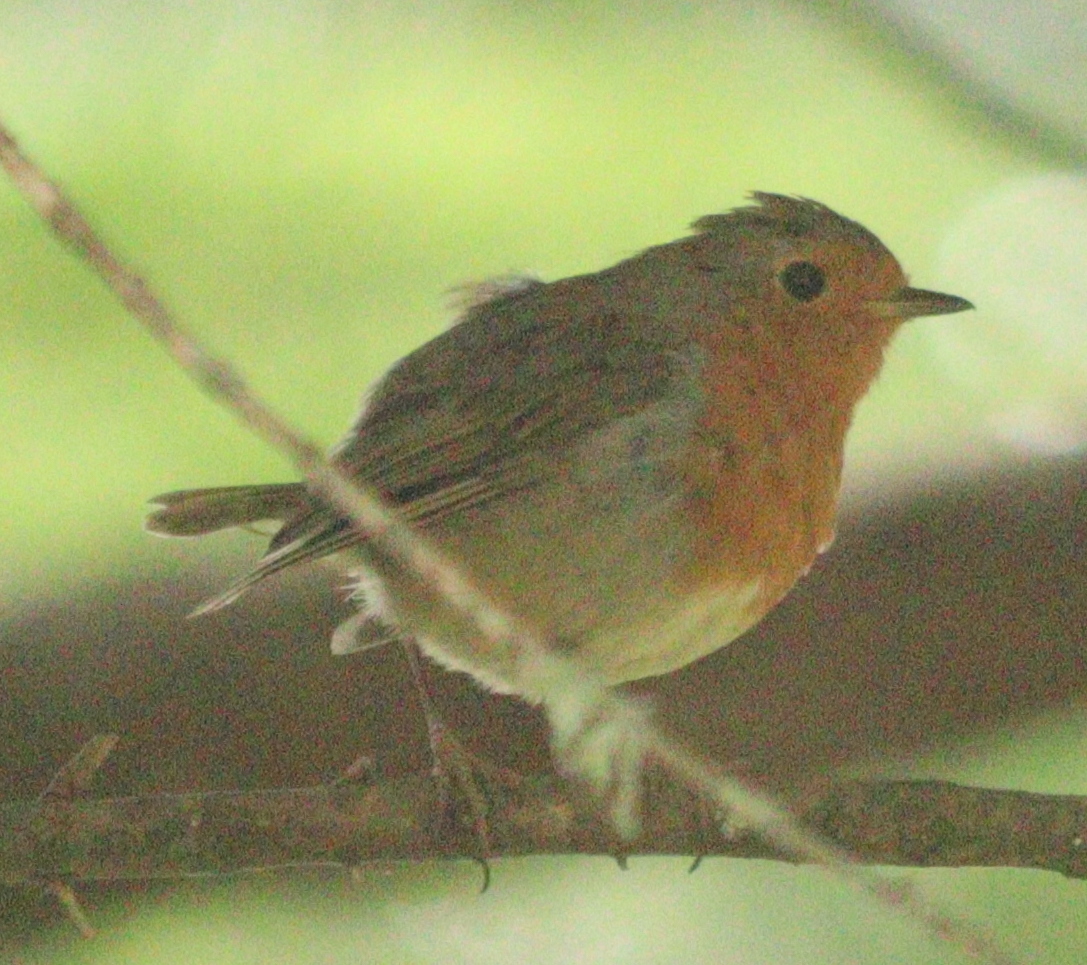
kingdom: Animalia
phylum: Chordata
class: Aves
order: Passeriformes
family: Muscicapidae
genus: Erithacus
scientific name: Erithacus rubecula
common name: European robin
